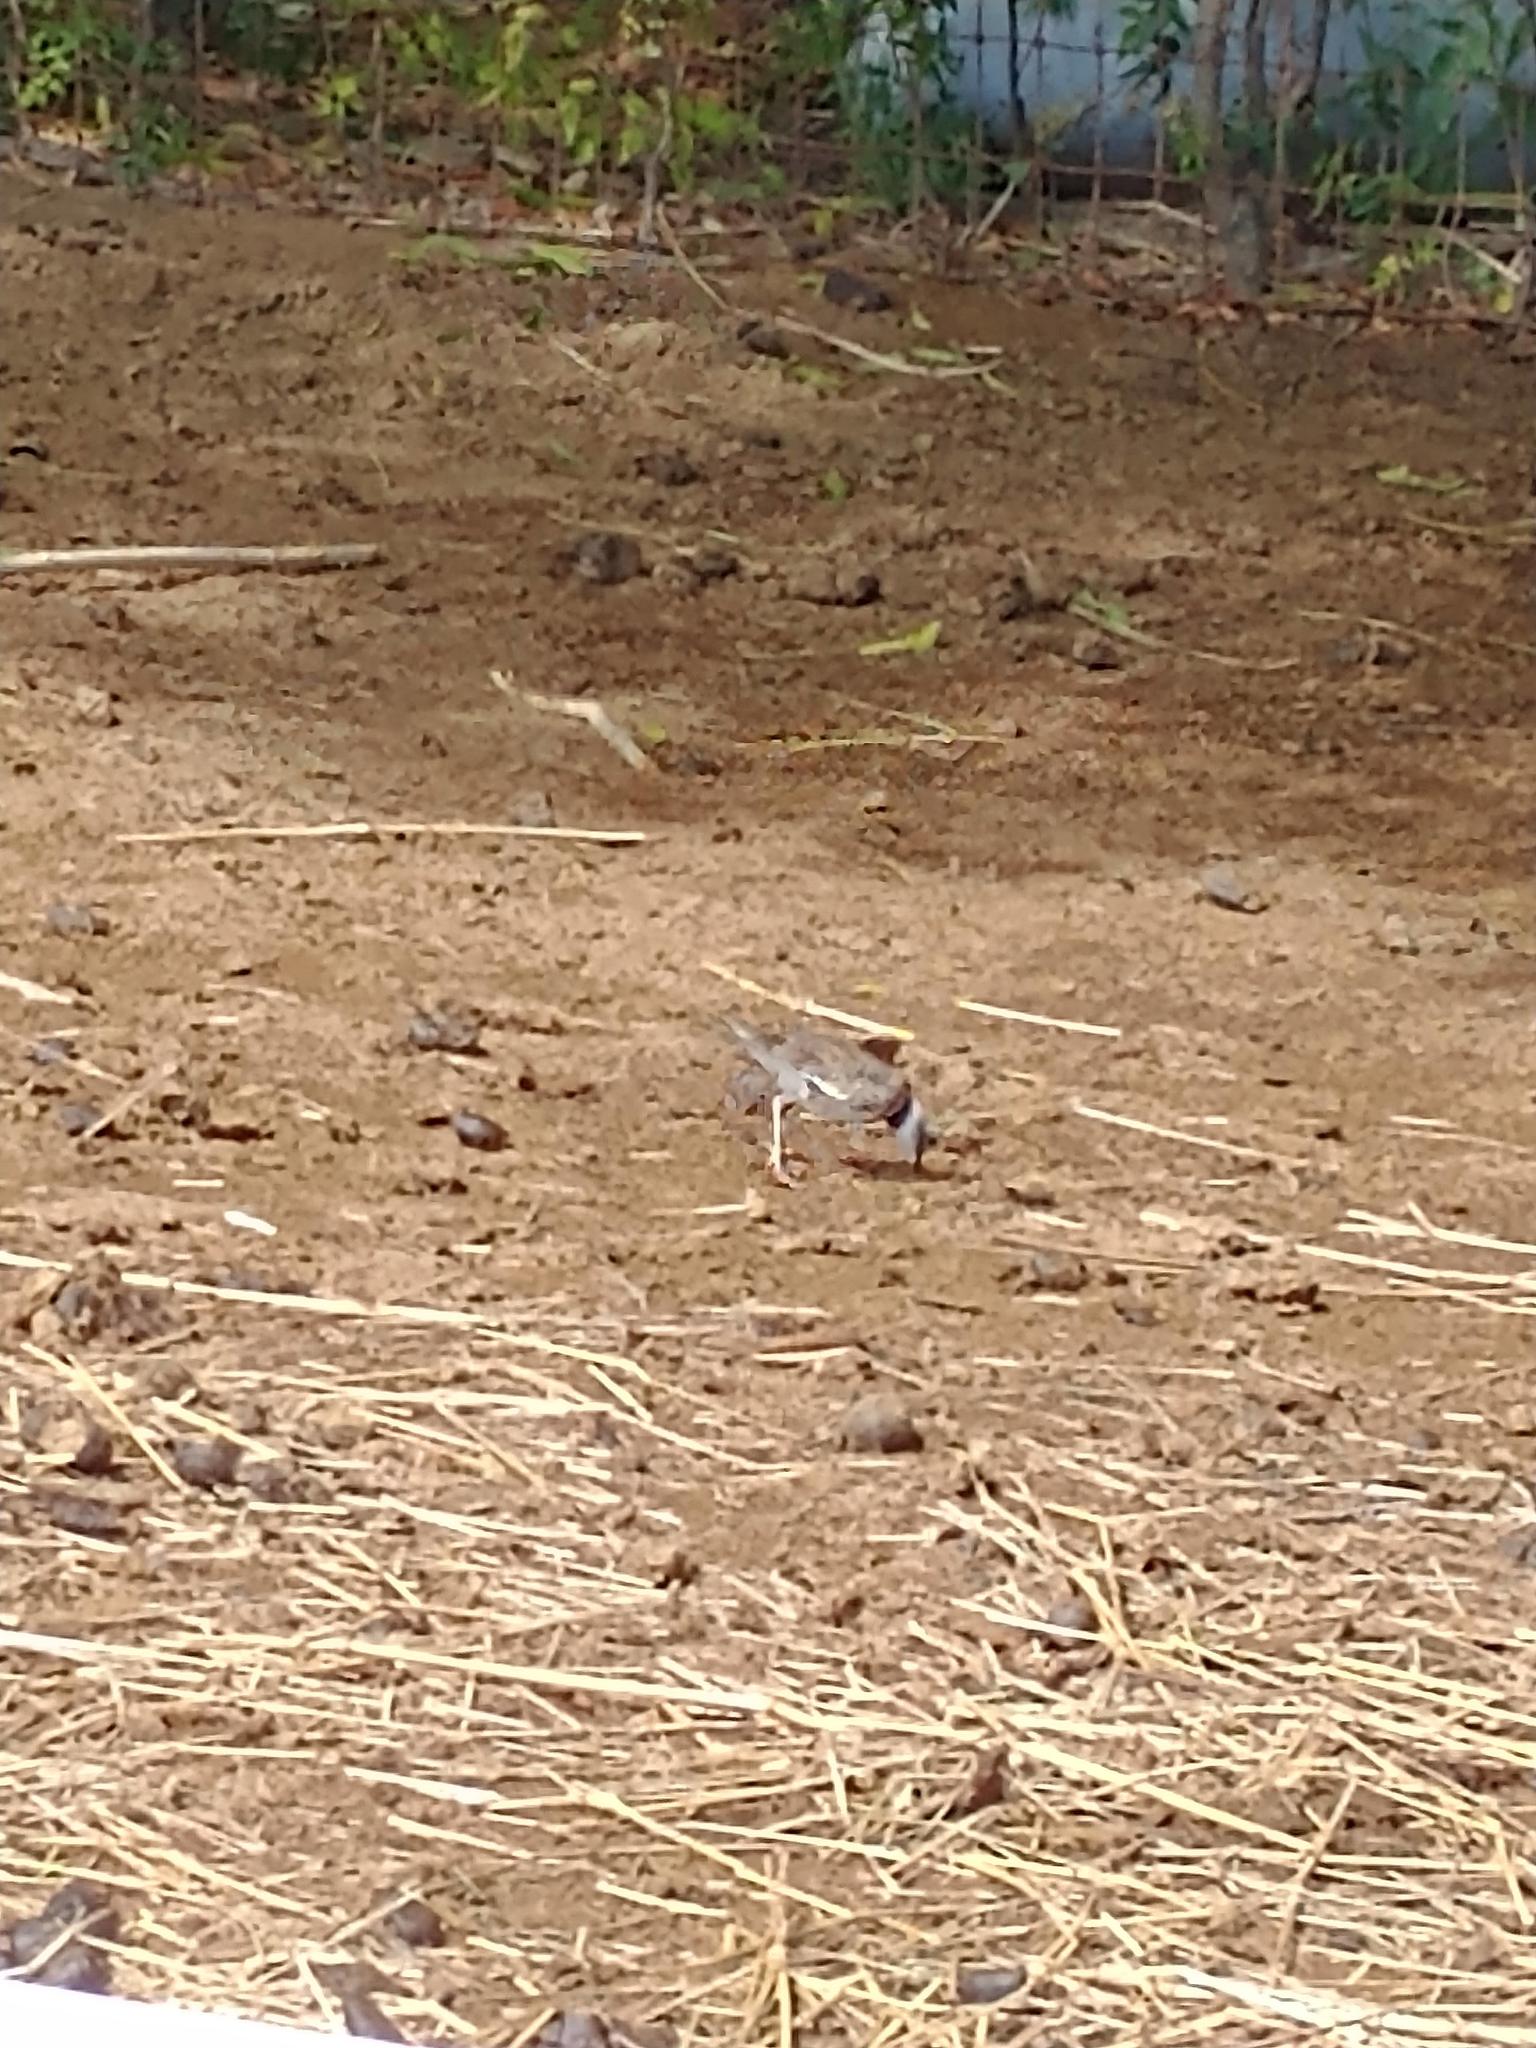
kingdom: Animalia
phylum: Chordata
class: Aves
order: Charadriiformes
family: Charadriidae
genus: Charadrius
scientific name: Charadrius vociferus
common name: Killdeer
